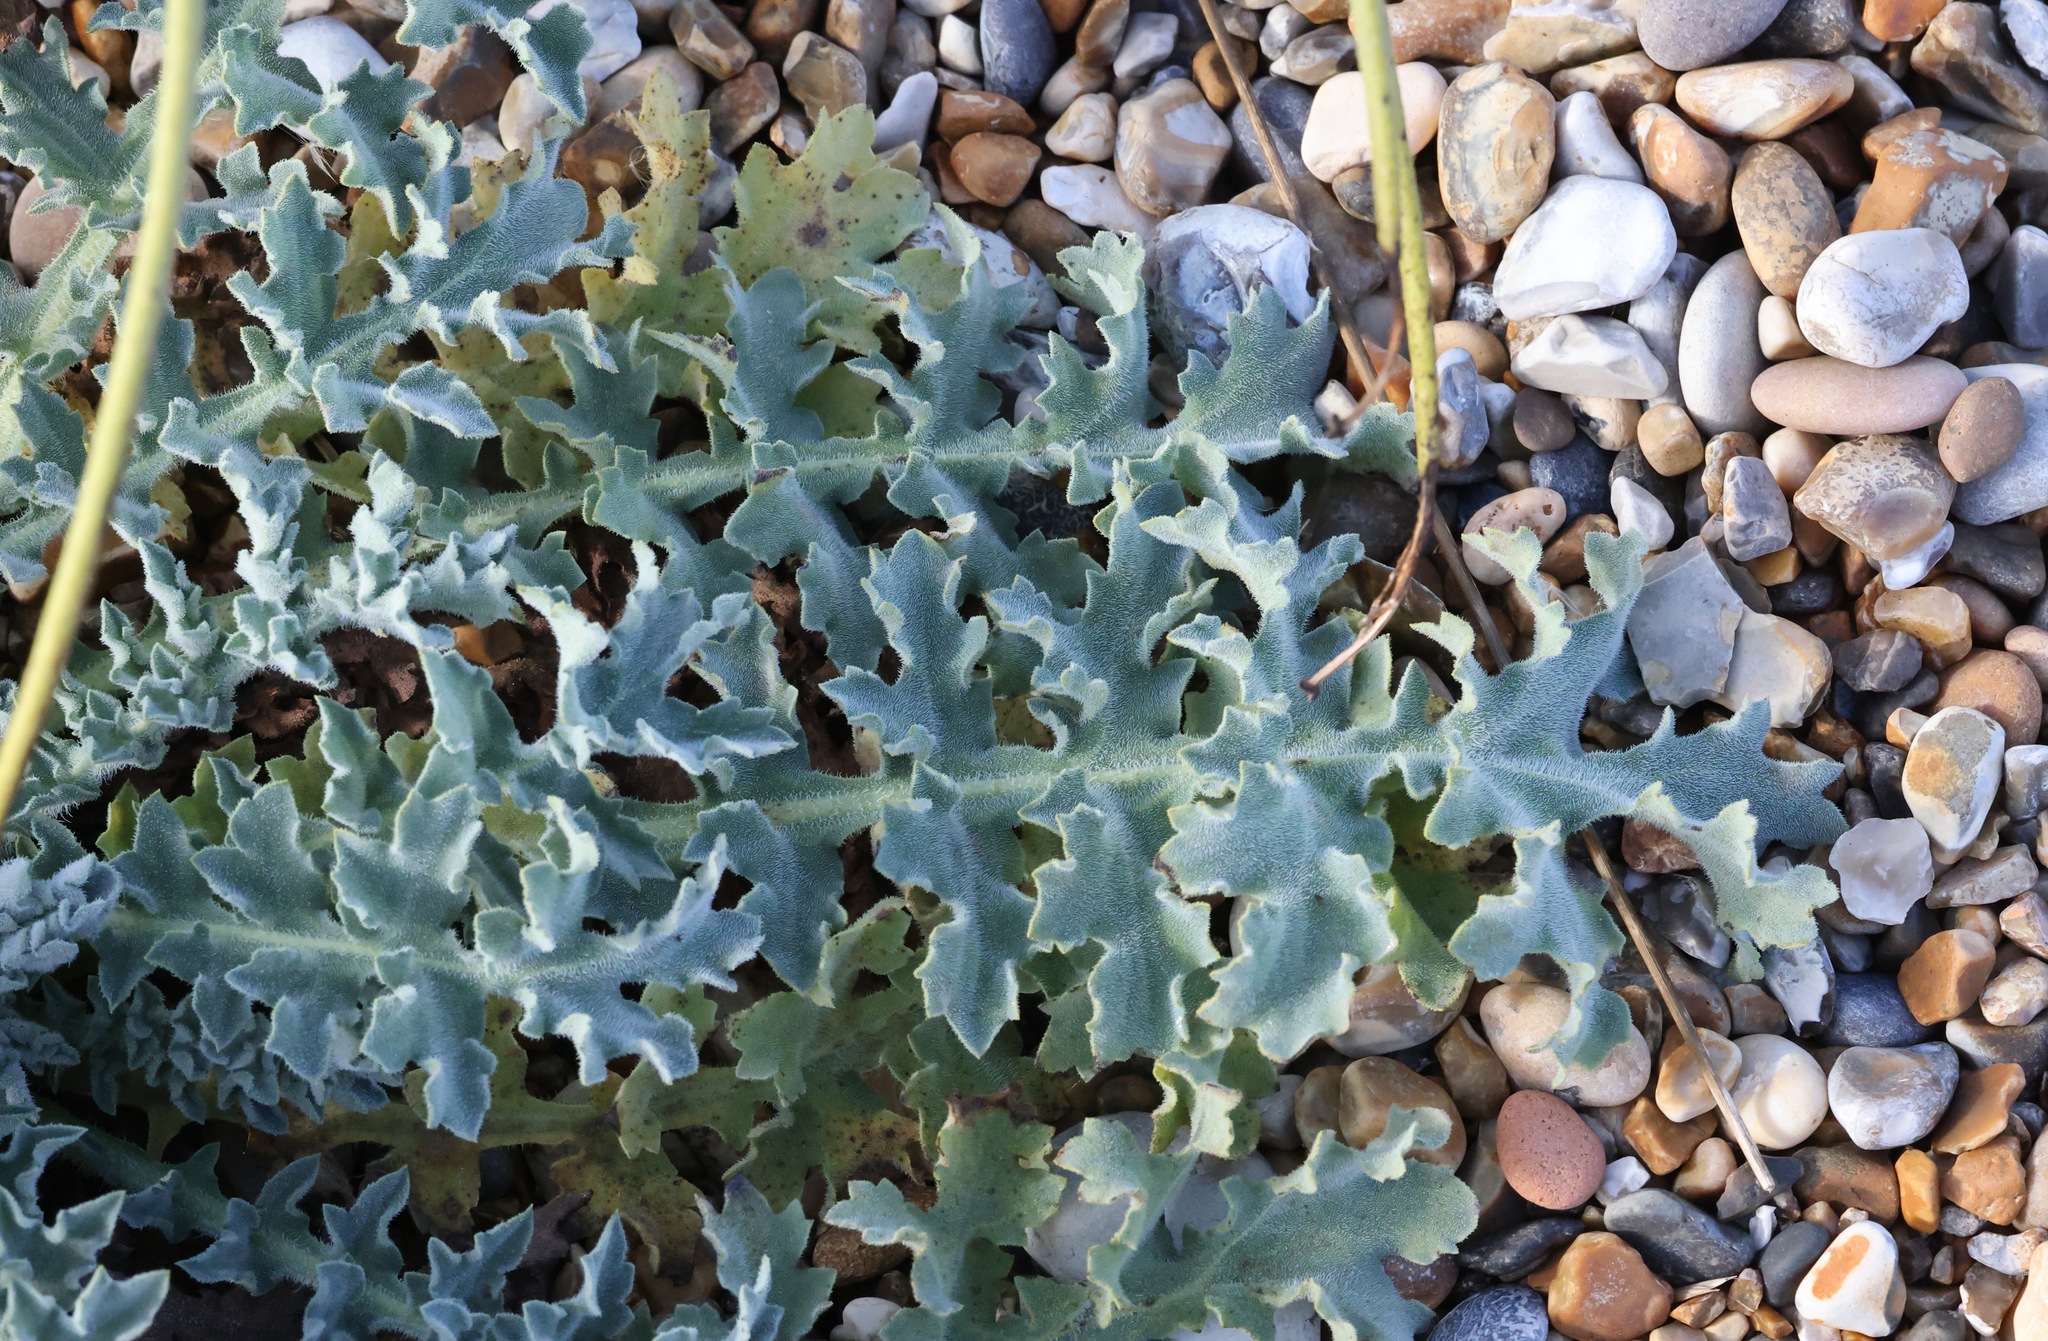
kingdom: Plantae
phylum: Tracheophyta
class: Magnoliopsida
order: Ranunculales
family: Papaveraceae
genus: Glaucium
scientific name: Glaucium flavum
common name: Yellow horned-poppy
